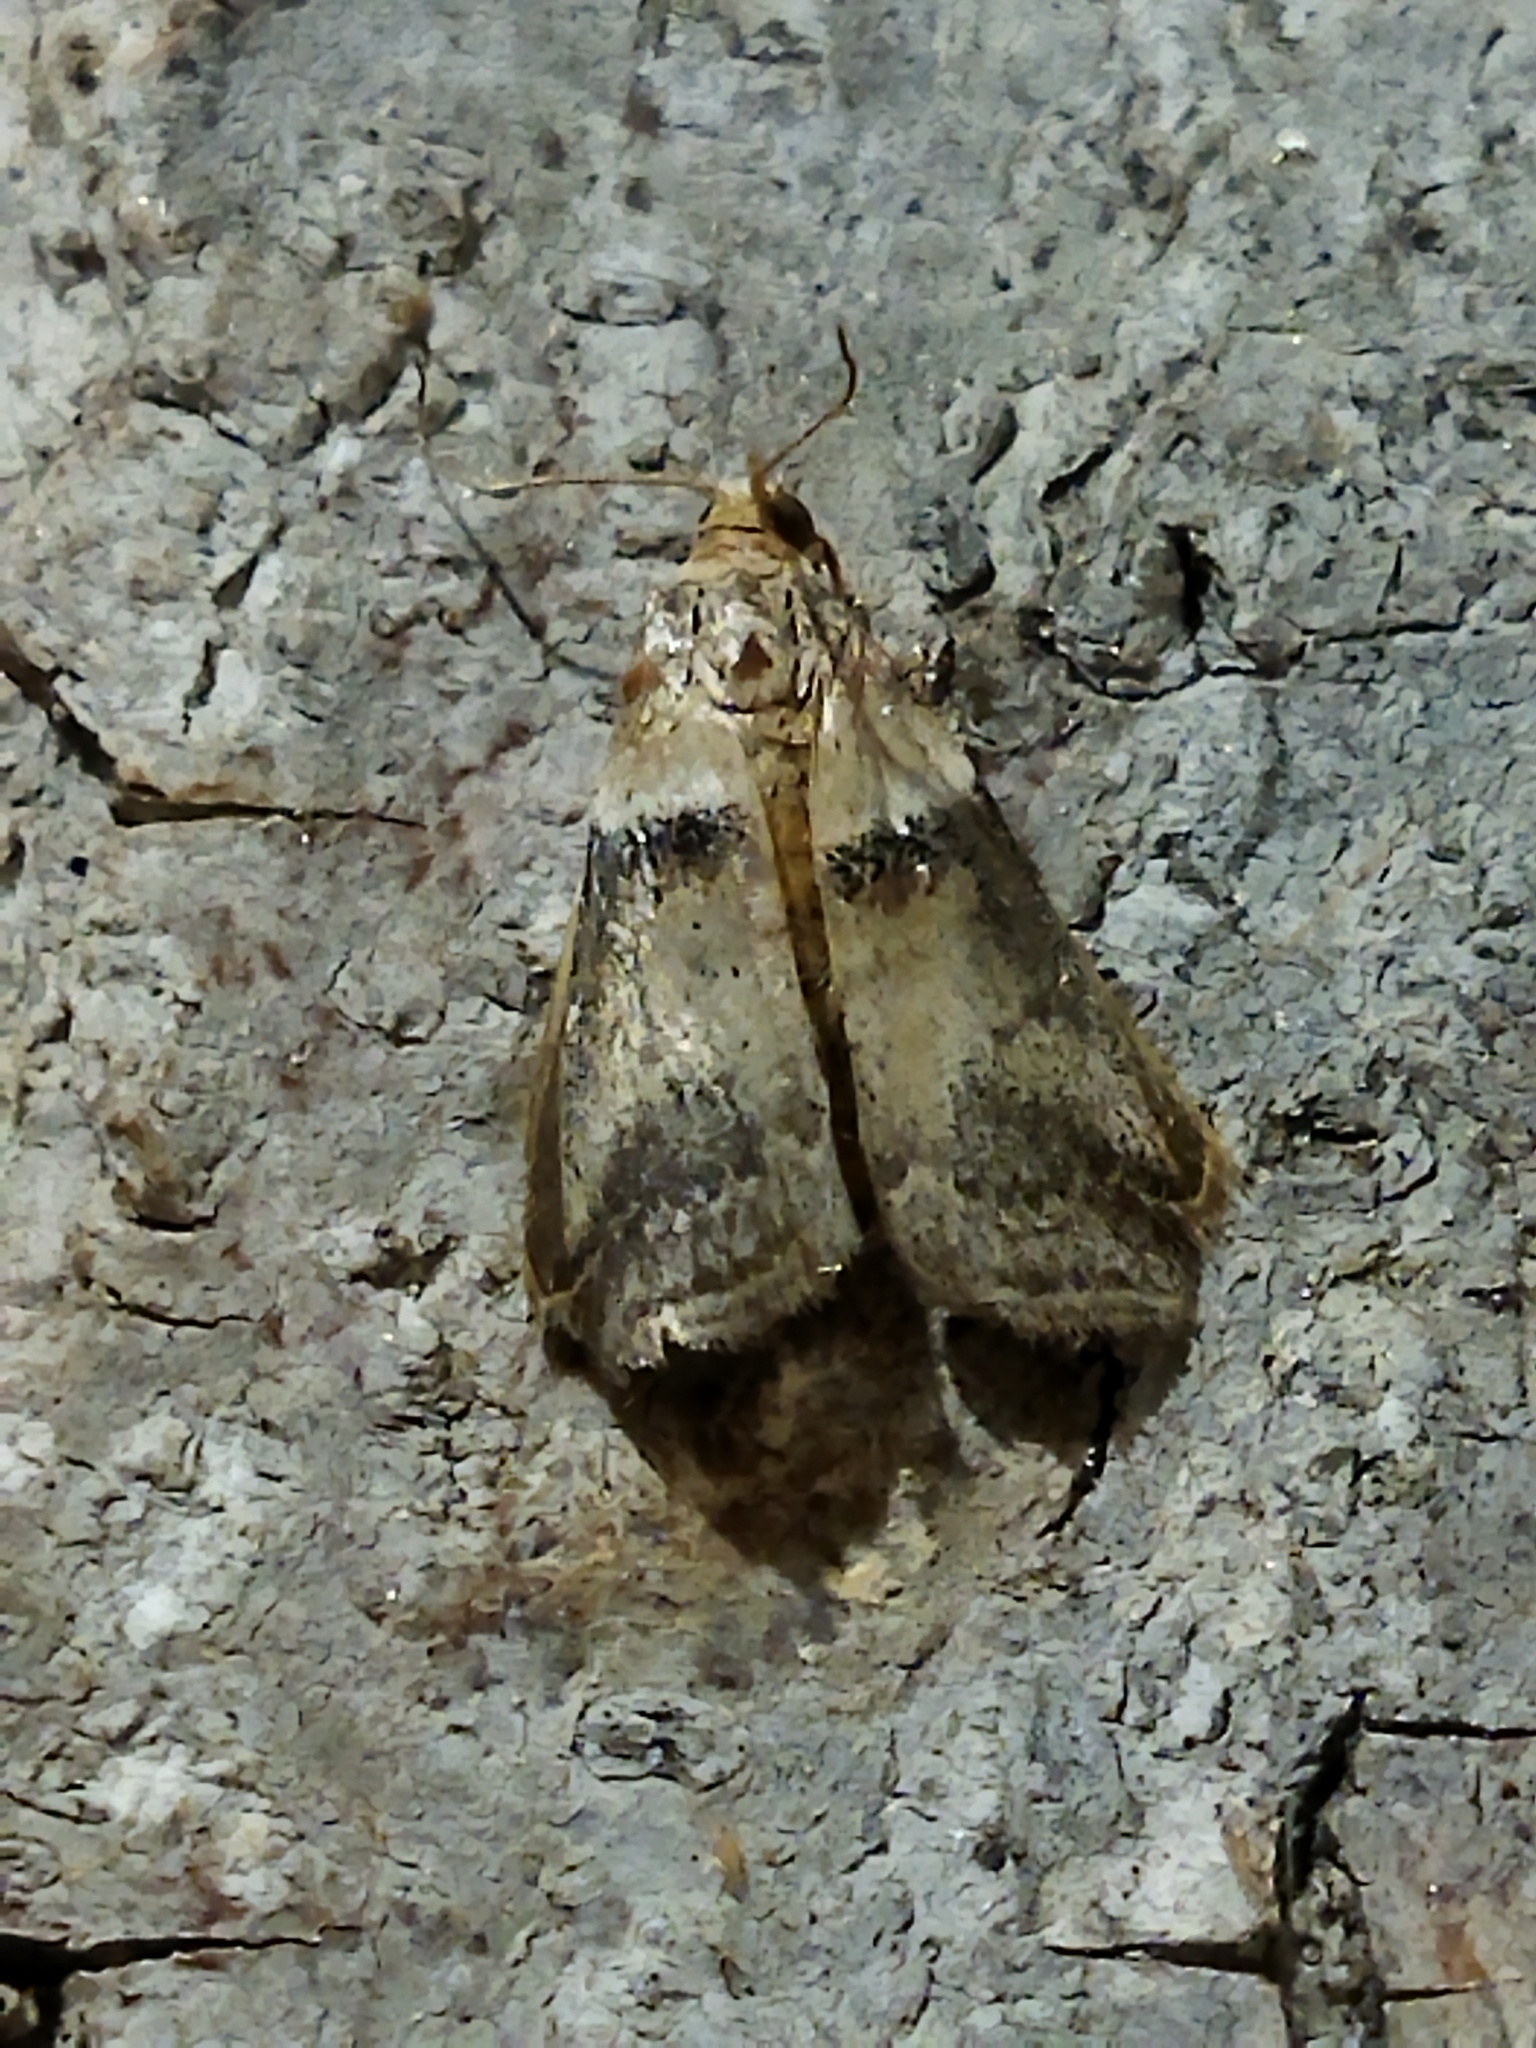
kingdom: Animalia
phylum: Arthropoda
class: Insecta
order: Lepidoptera
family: Pyralidae
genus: Acrobasis
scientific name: Acrobasis tumidana
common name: Scarce oak knot-horn
